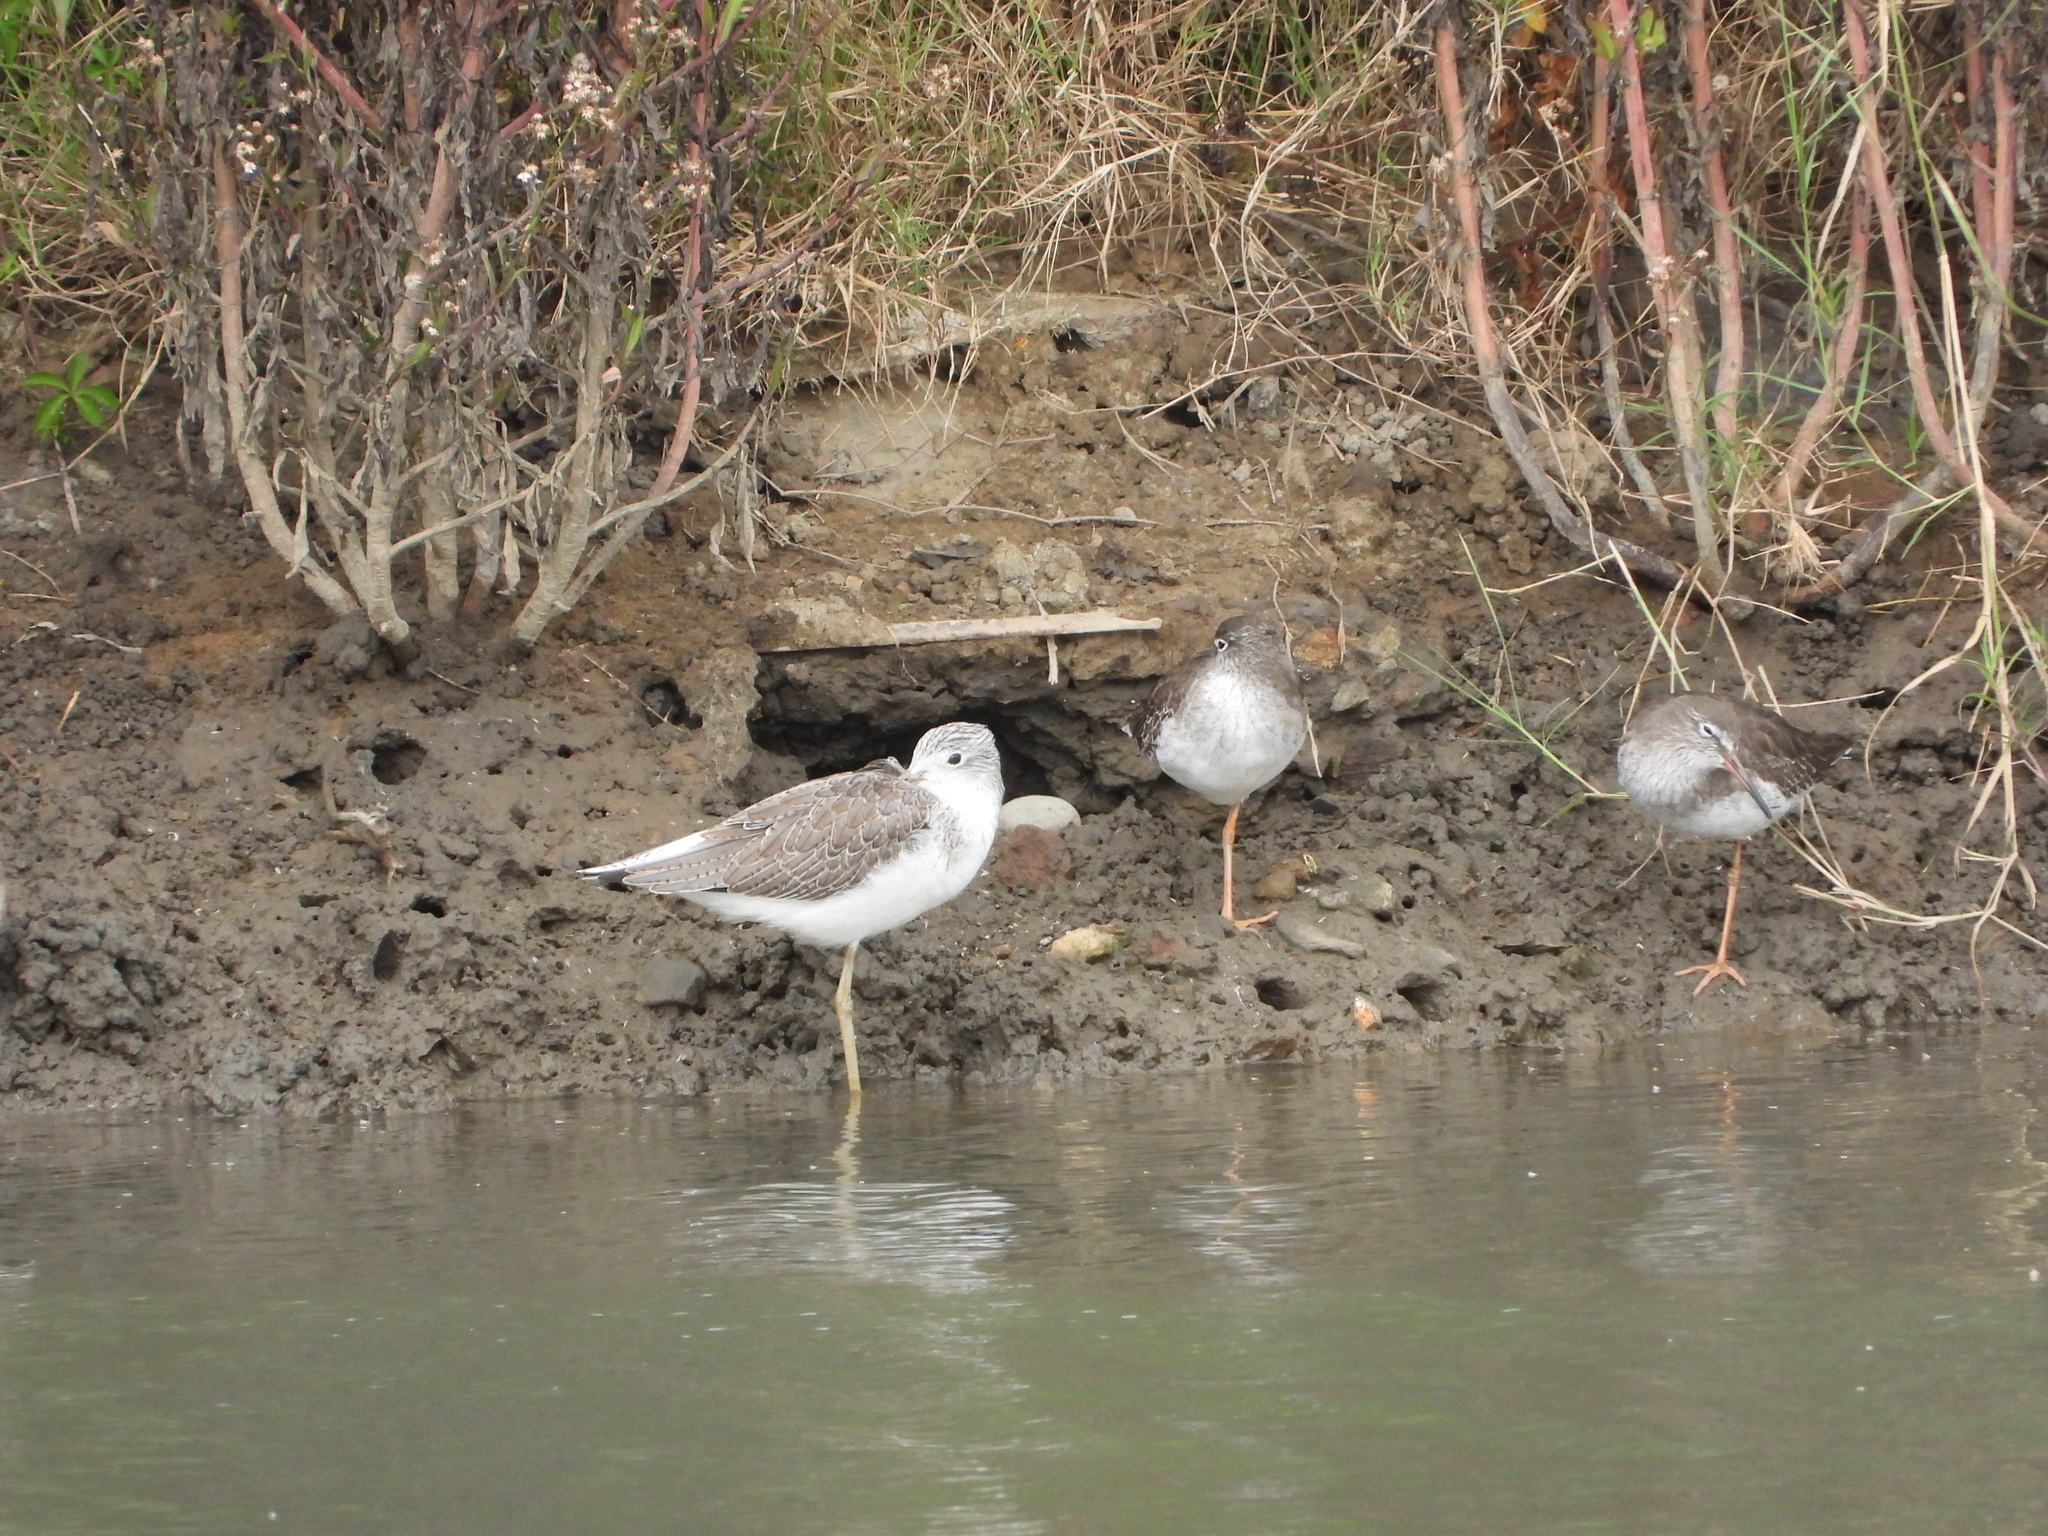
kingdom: Animalia
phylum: Chordata
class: Aves
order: Charadriiformes
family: Scolopacidae
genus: Tringa
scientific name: Tringa totanus
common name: Common redshank
